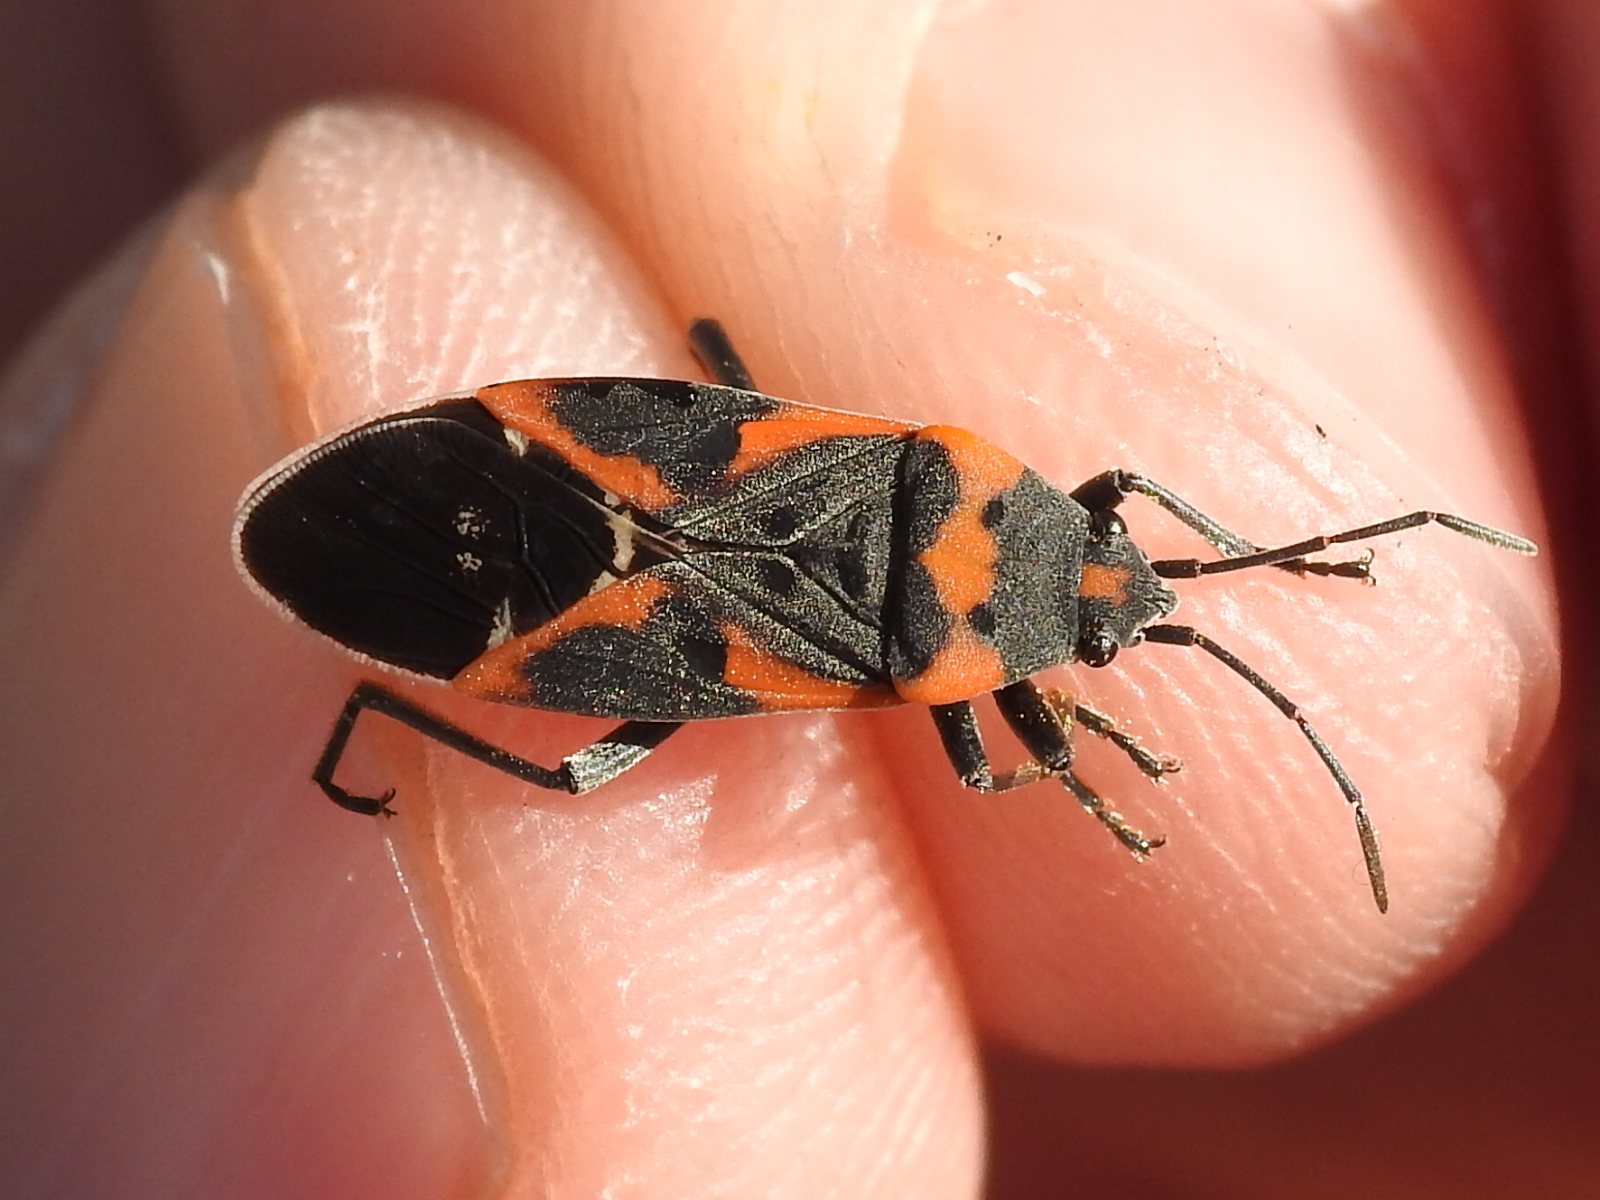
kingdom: Animalia
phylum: Arthropoda
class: Insecta
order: Hemiptera
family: Lygaeidae
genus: Lygaeus
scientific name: Lygaeus kalmii
